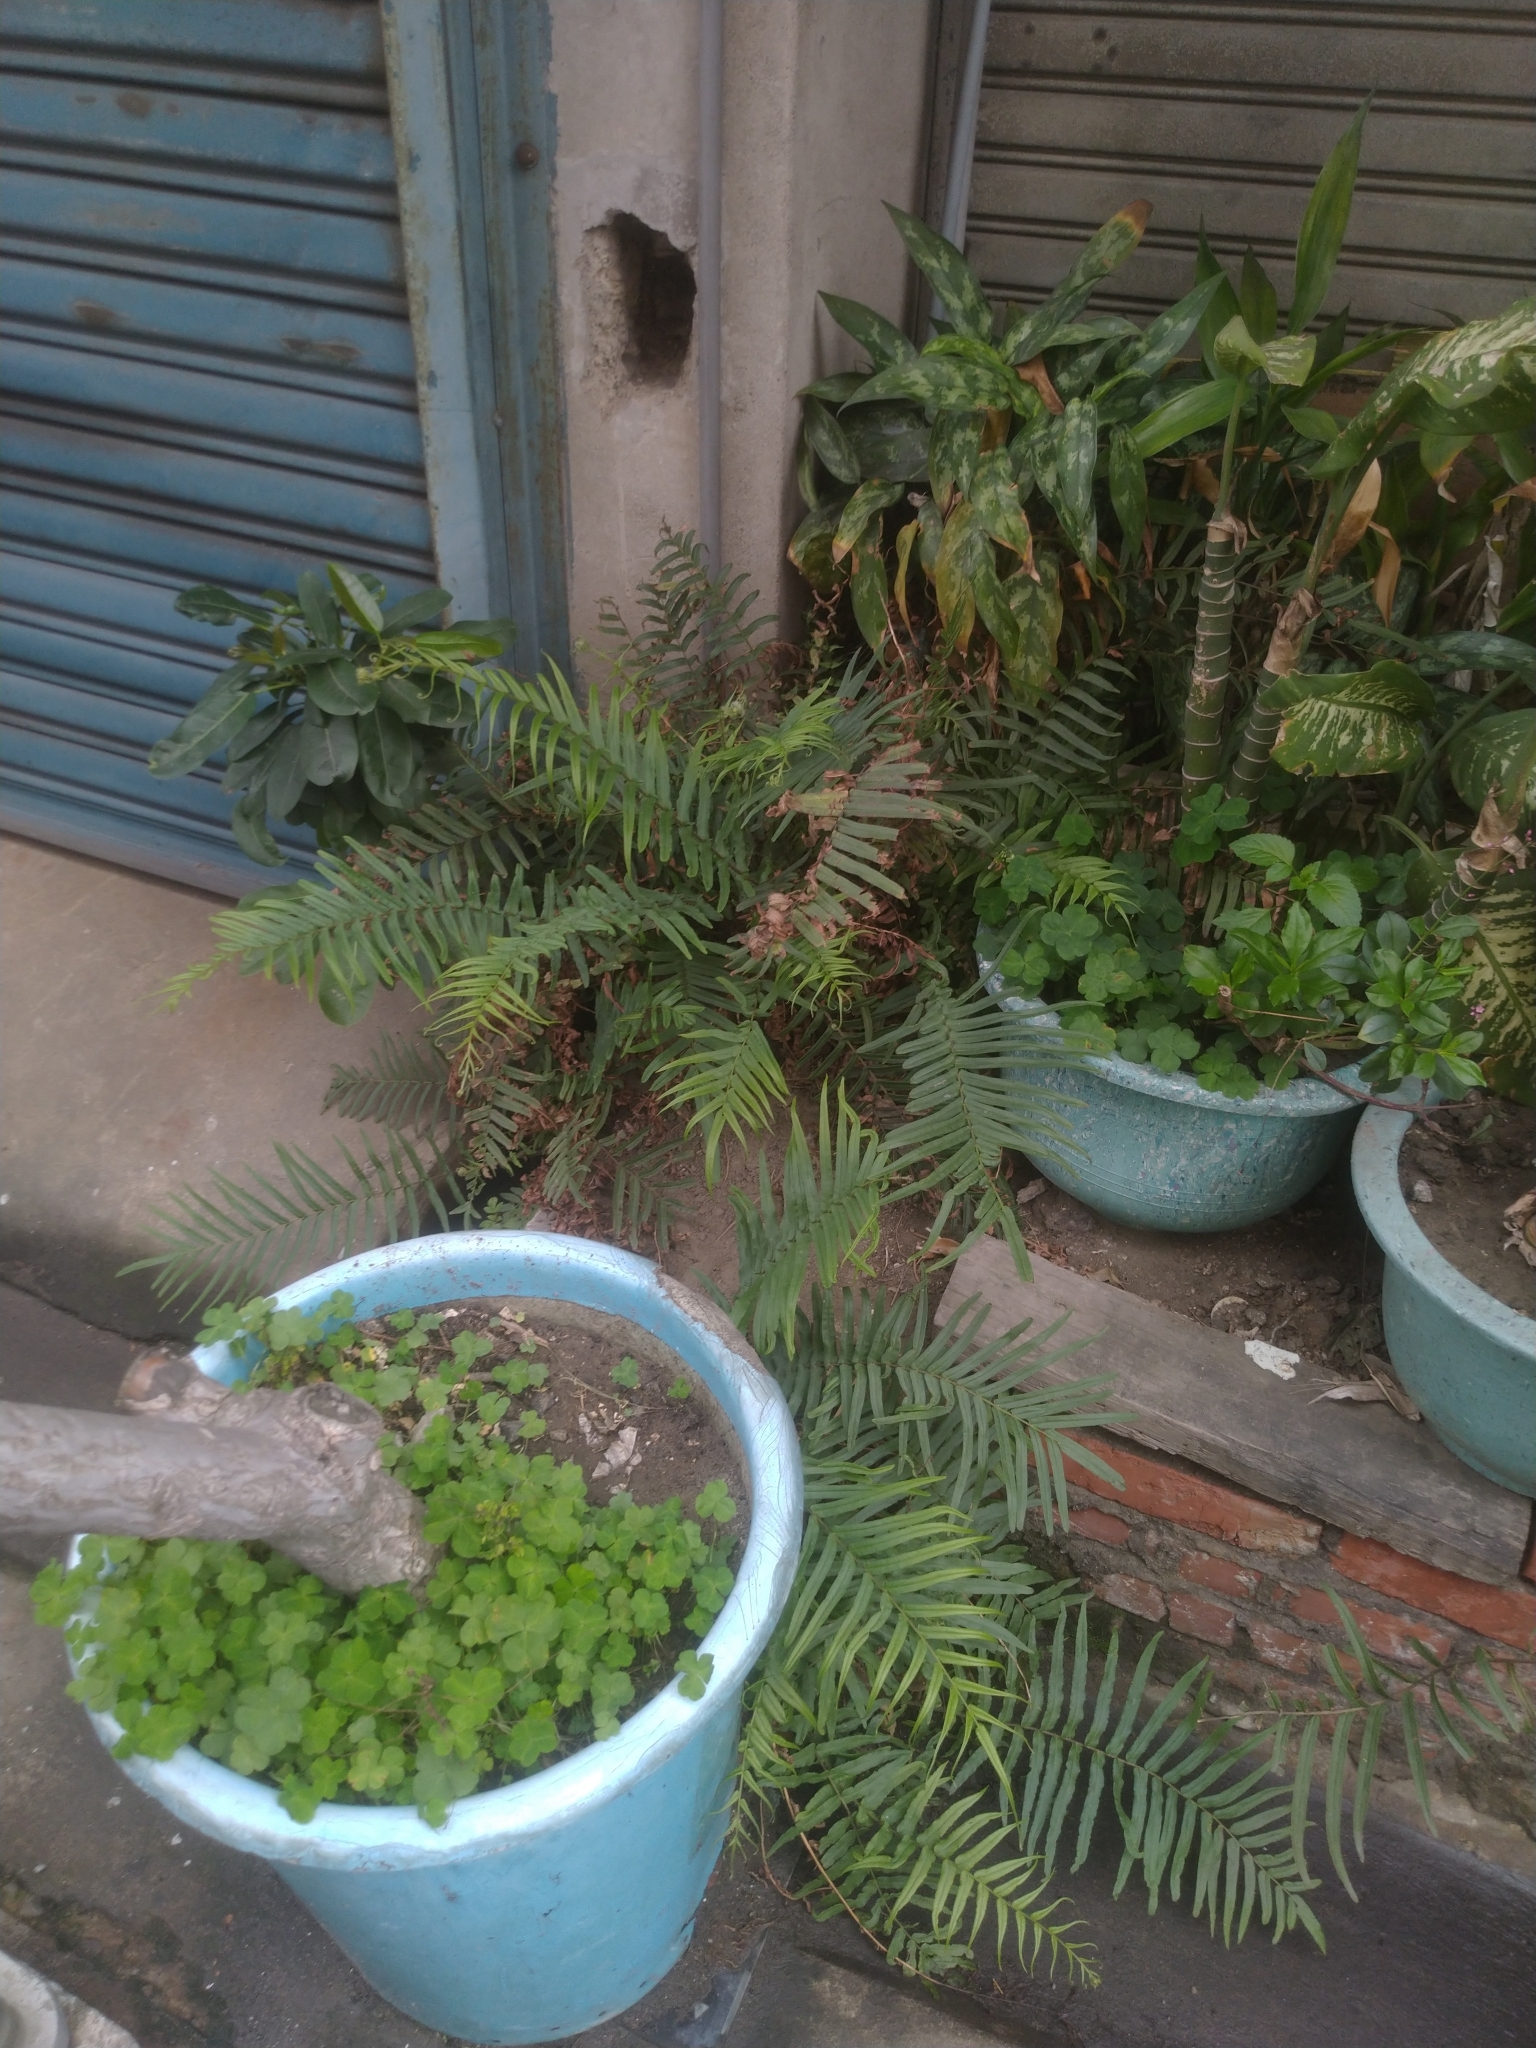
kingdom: Plantae
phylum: Tracheophyta
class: Polypodiopsida
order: Polypodiales
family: Pteridaceae
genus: Pteris
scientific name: Pteris vittata
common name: Ladder brake
